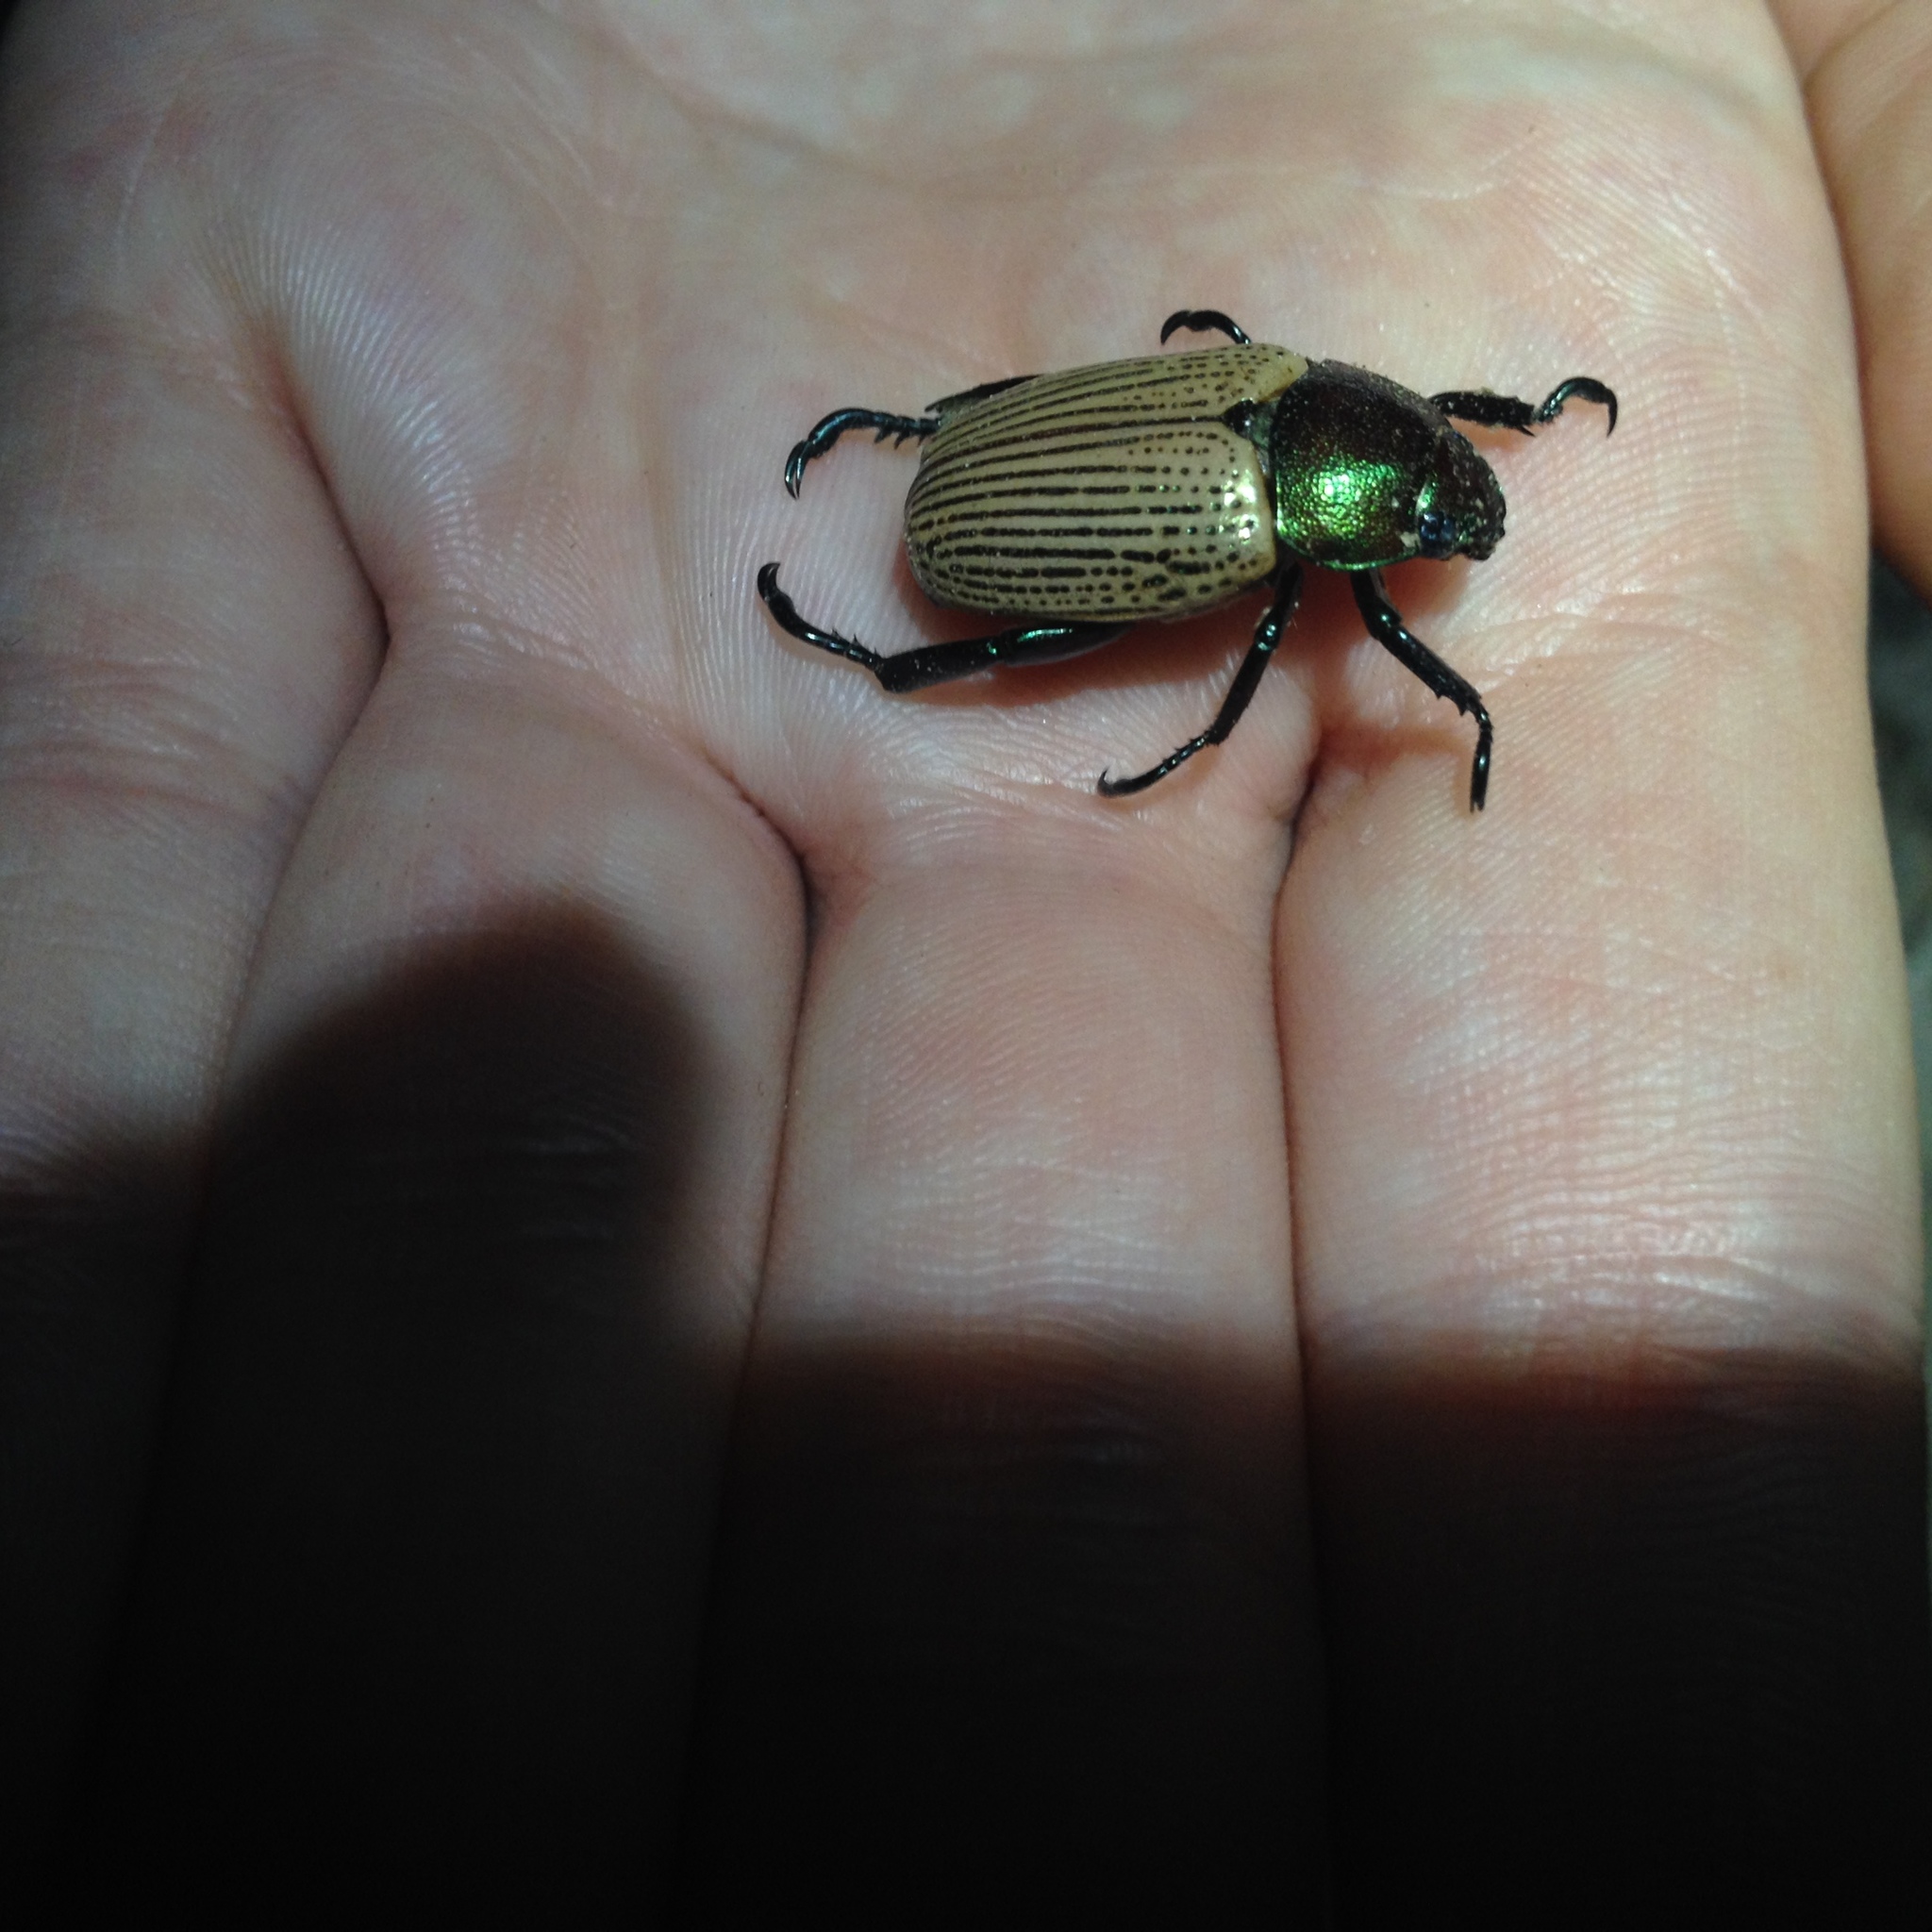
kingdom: Animalia
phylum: Arthropoda
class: Insecta
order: Coleoptera
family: Scarabaeidae
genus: Epichalcoplethis
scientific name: Epichalcoplethis sanctijacobi
